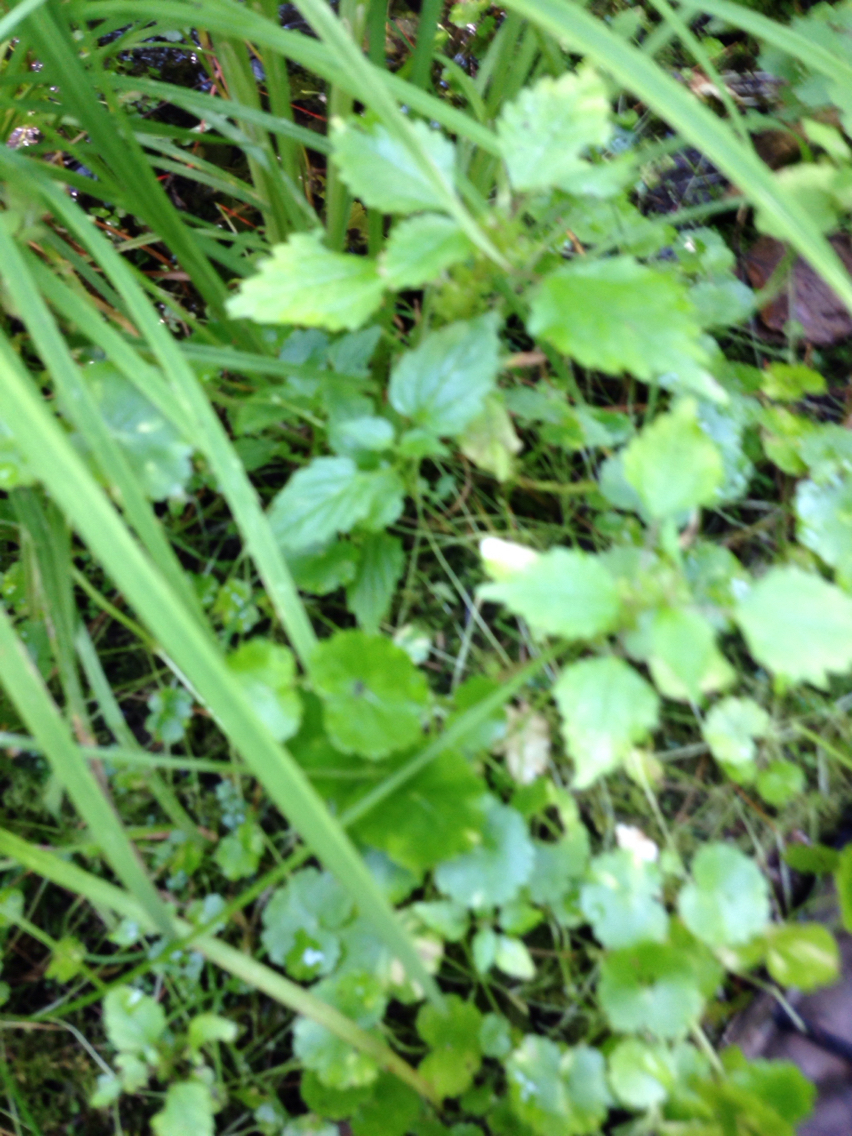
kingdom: Plantae
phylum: Tracheophyta
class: Magnoliopsida
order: Rosales
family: Urticaceae
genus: Pilea
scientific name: Pilea pumila
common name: Clearweed
